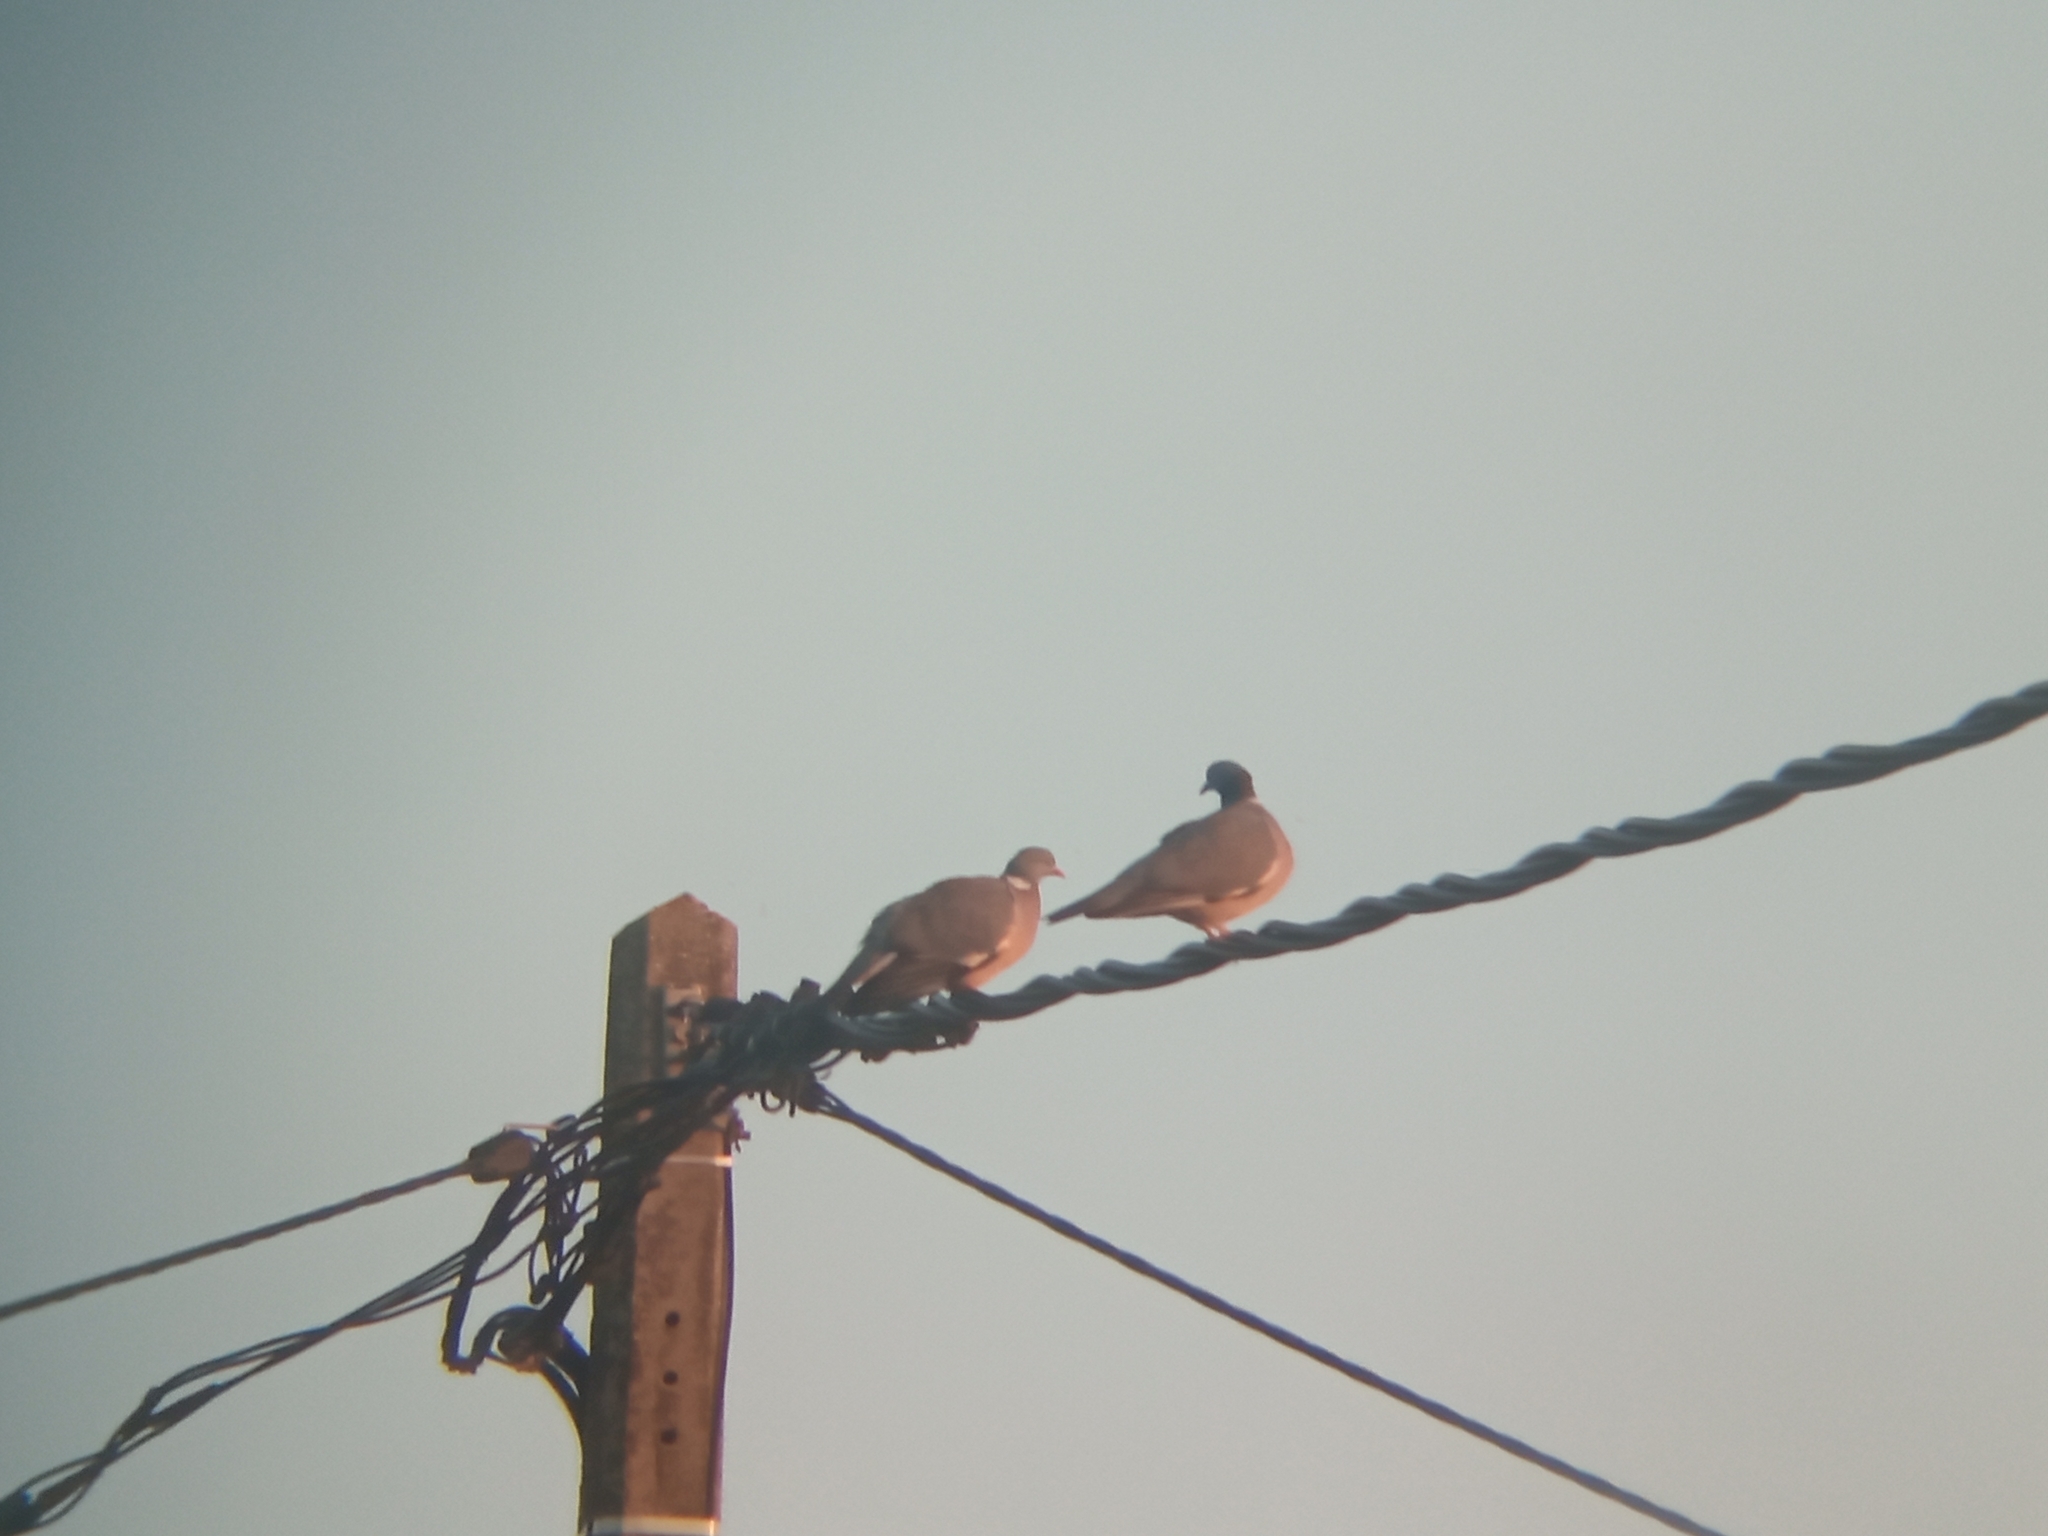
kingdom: Animalia
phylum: Chordata
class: Aves
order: Columbiformes
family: Columbidae
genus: Columba
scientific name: Columba palumbus
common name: Common wood pigeon
